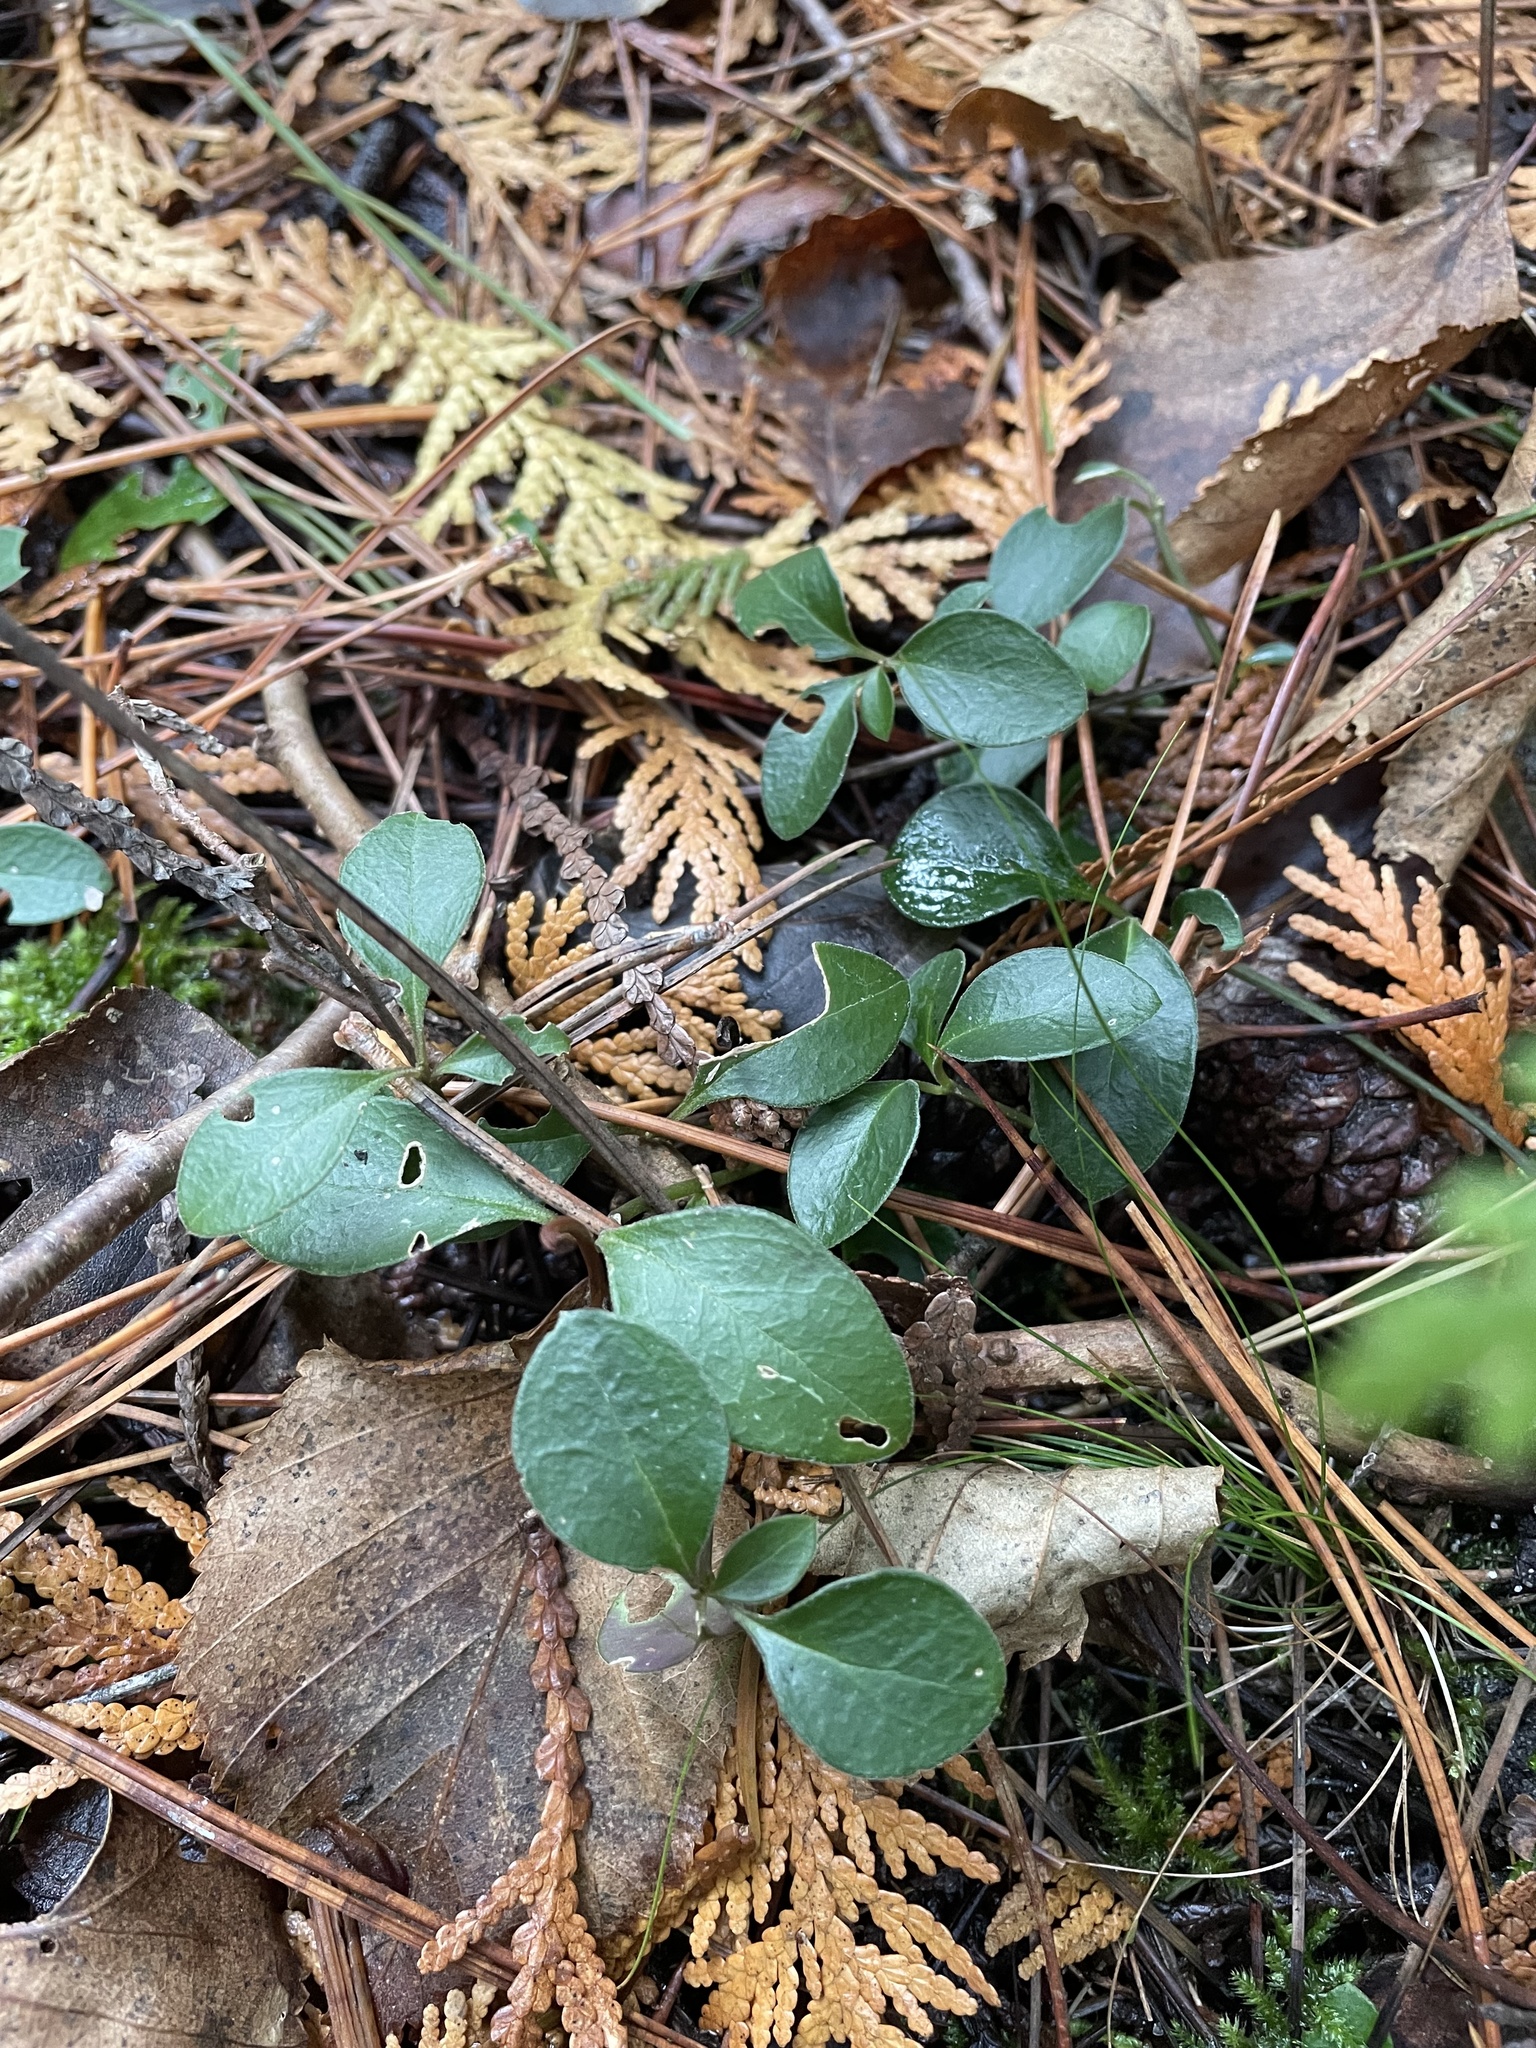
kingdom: Plantae
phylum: Tracheophyta
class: Magnoliopsida
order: Fabales
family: Polygalaceae
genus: Polygaloides
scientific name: Polygaloides paucifolia
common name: Bird-on-the-wing
